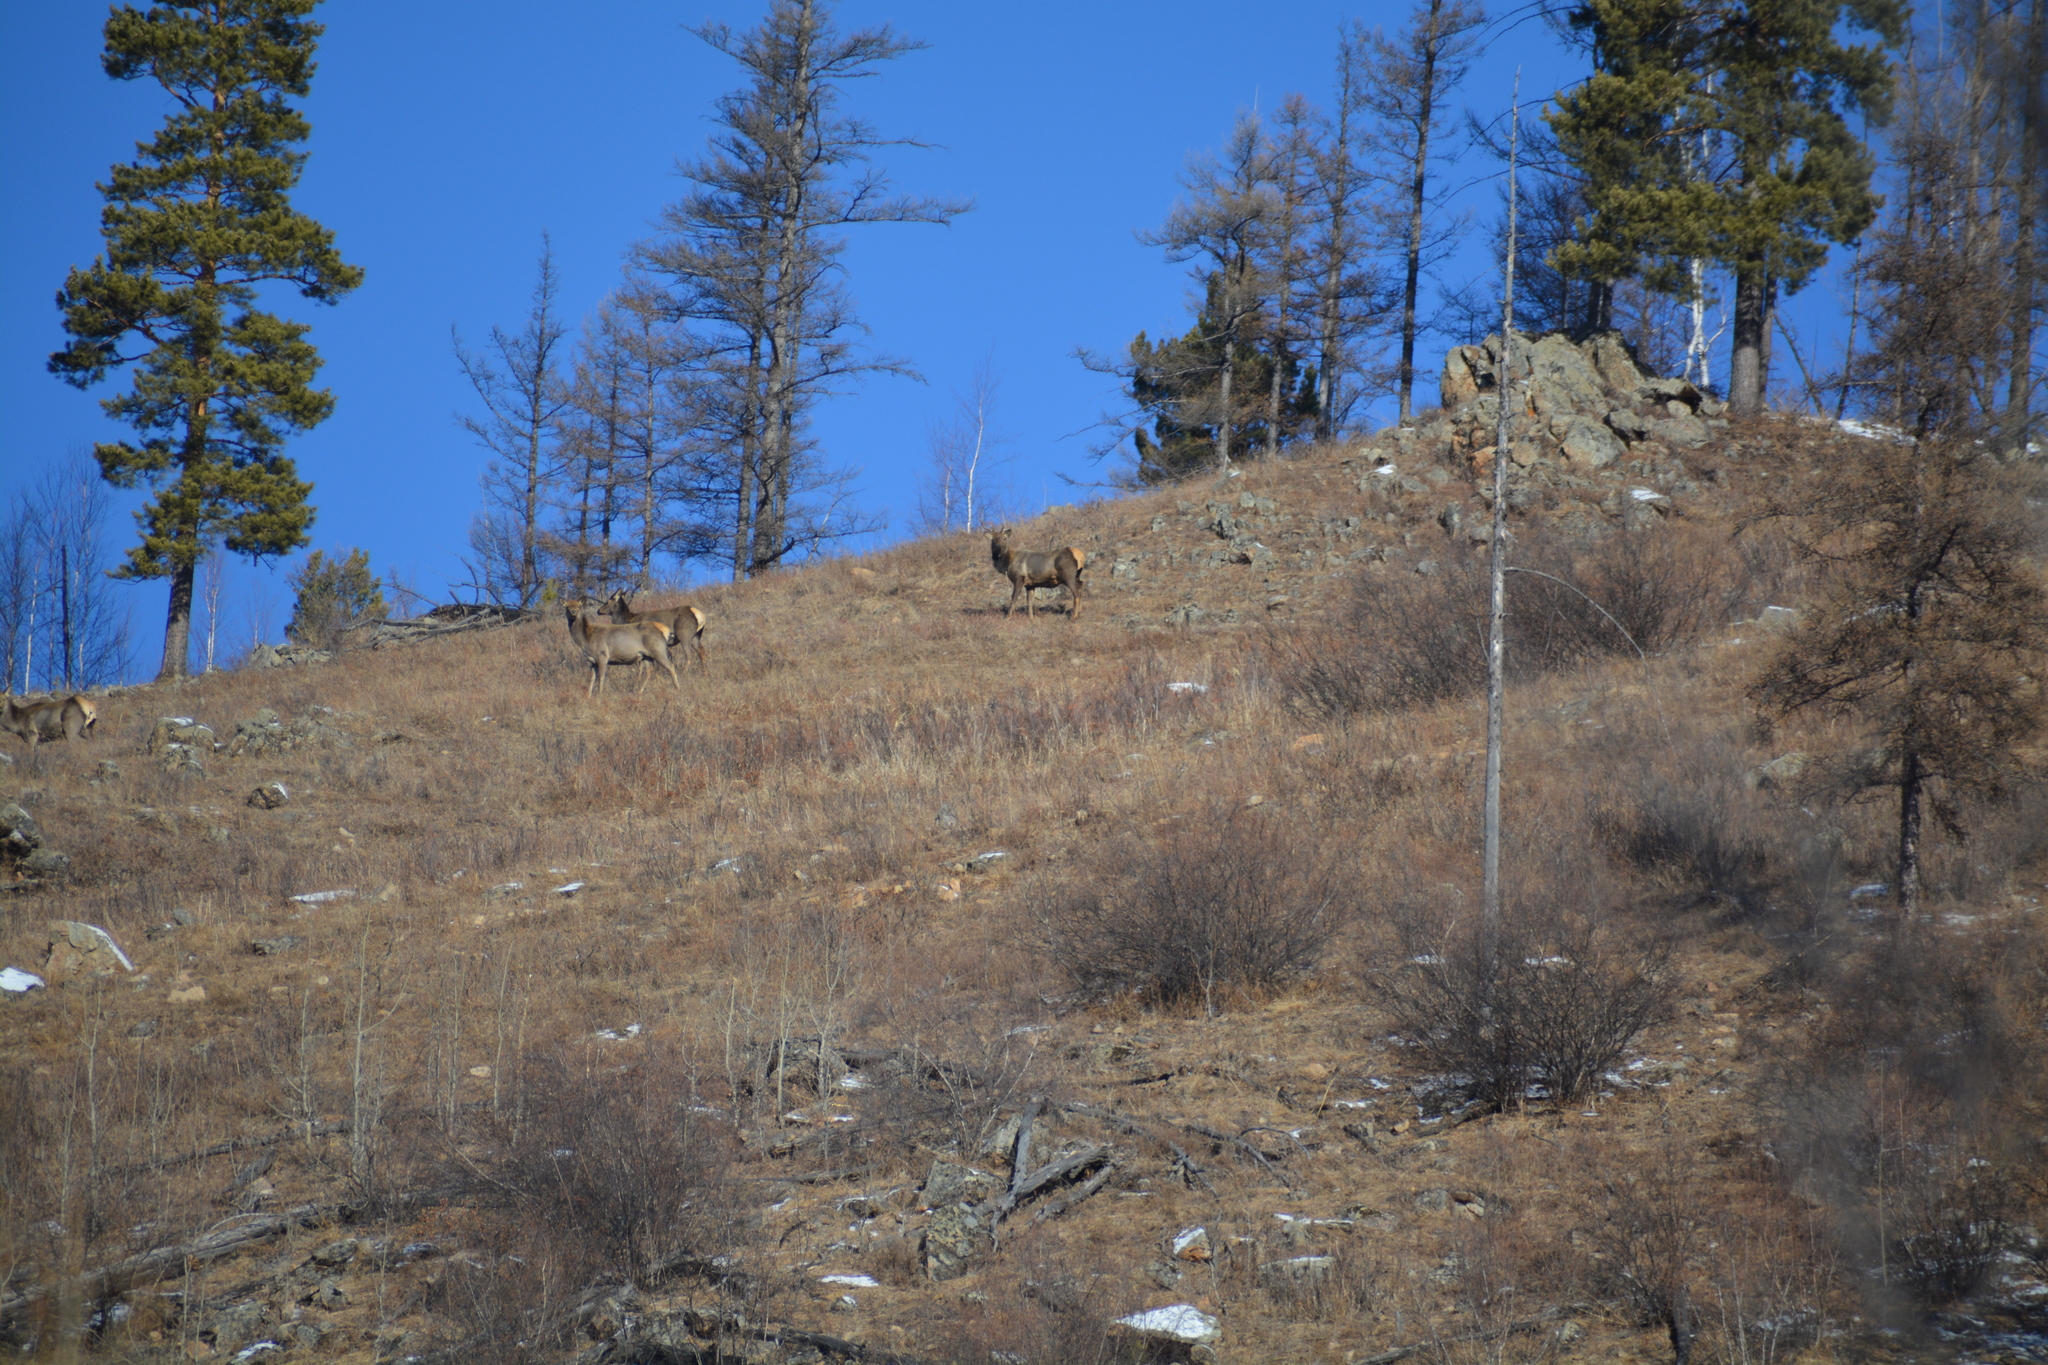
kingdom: Animalia
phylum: Chordata
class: Mammalia
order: Artiodactyla
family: Cervidae
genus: Cervus
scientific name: Cervus elaphus
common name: Red deer
